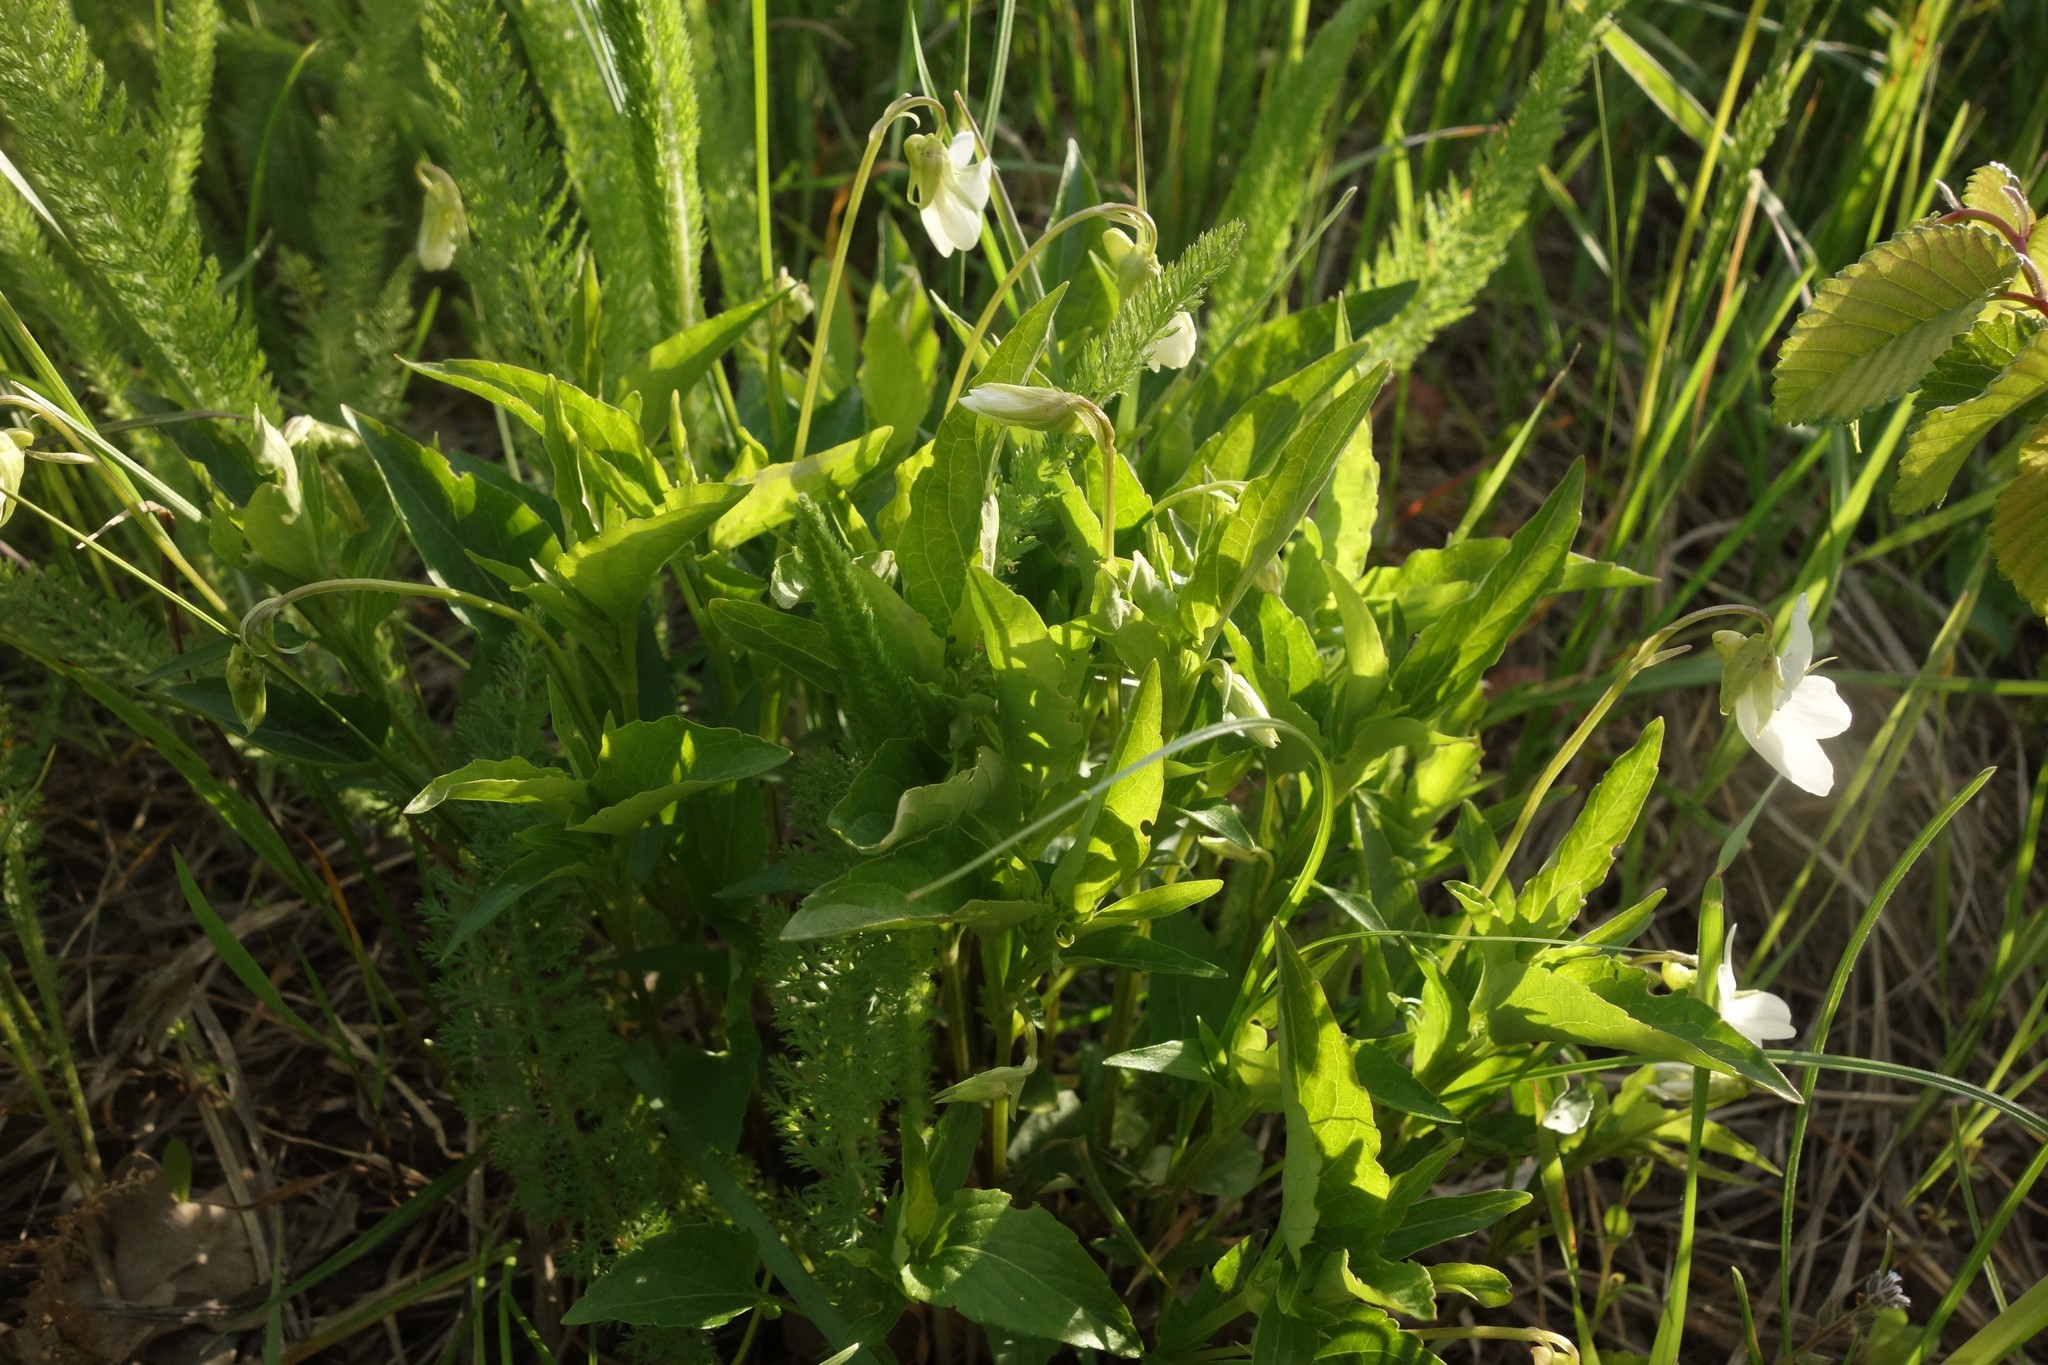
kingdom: Plantae
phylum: Tracheophyta
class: Magnoliopsida
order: Malpighiales
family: Violaceae
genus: Viola
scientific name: Viola pumila
